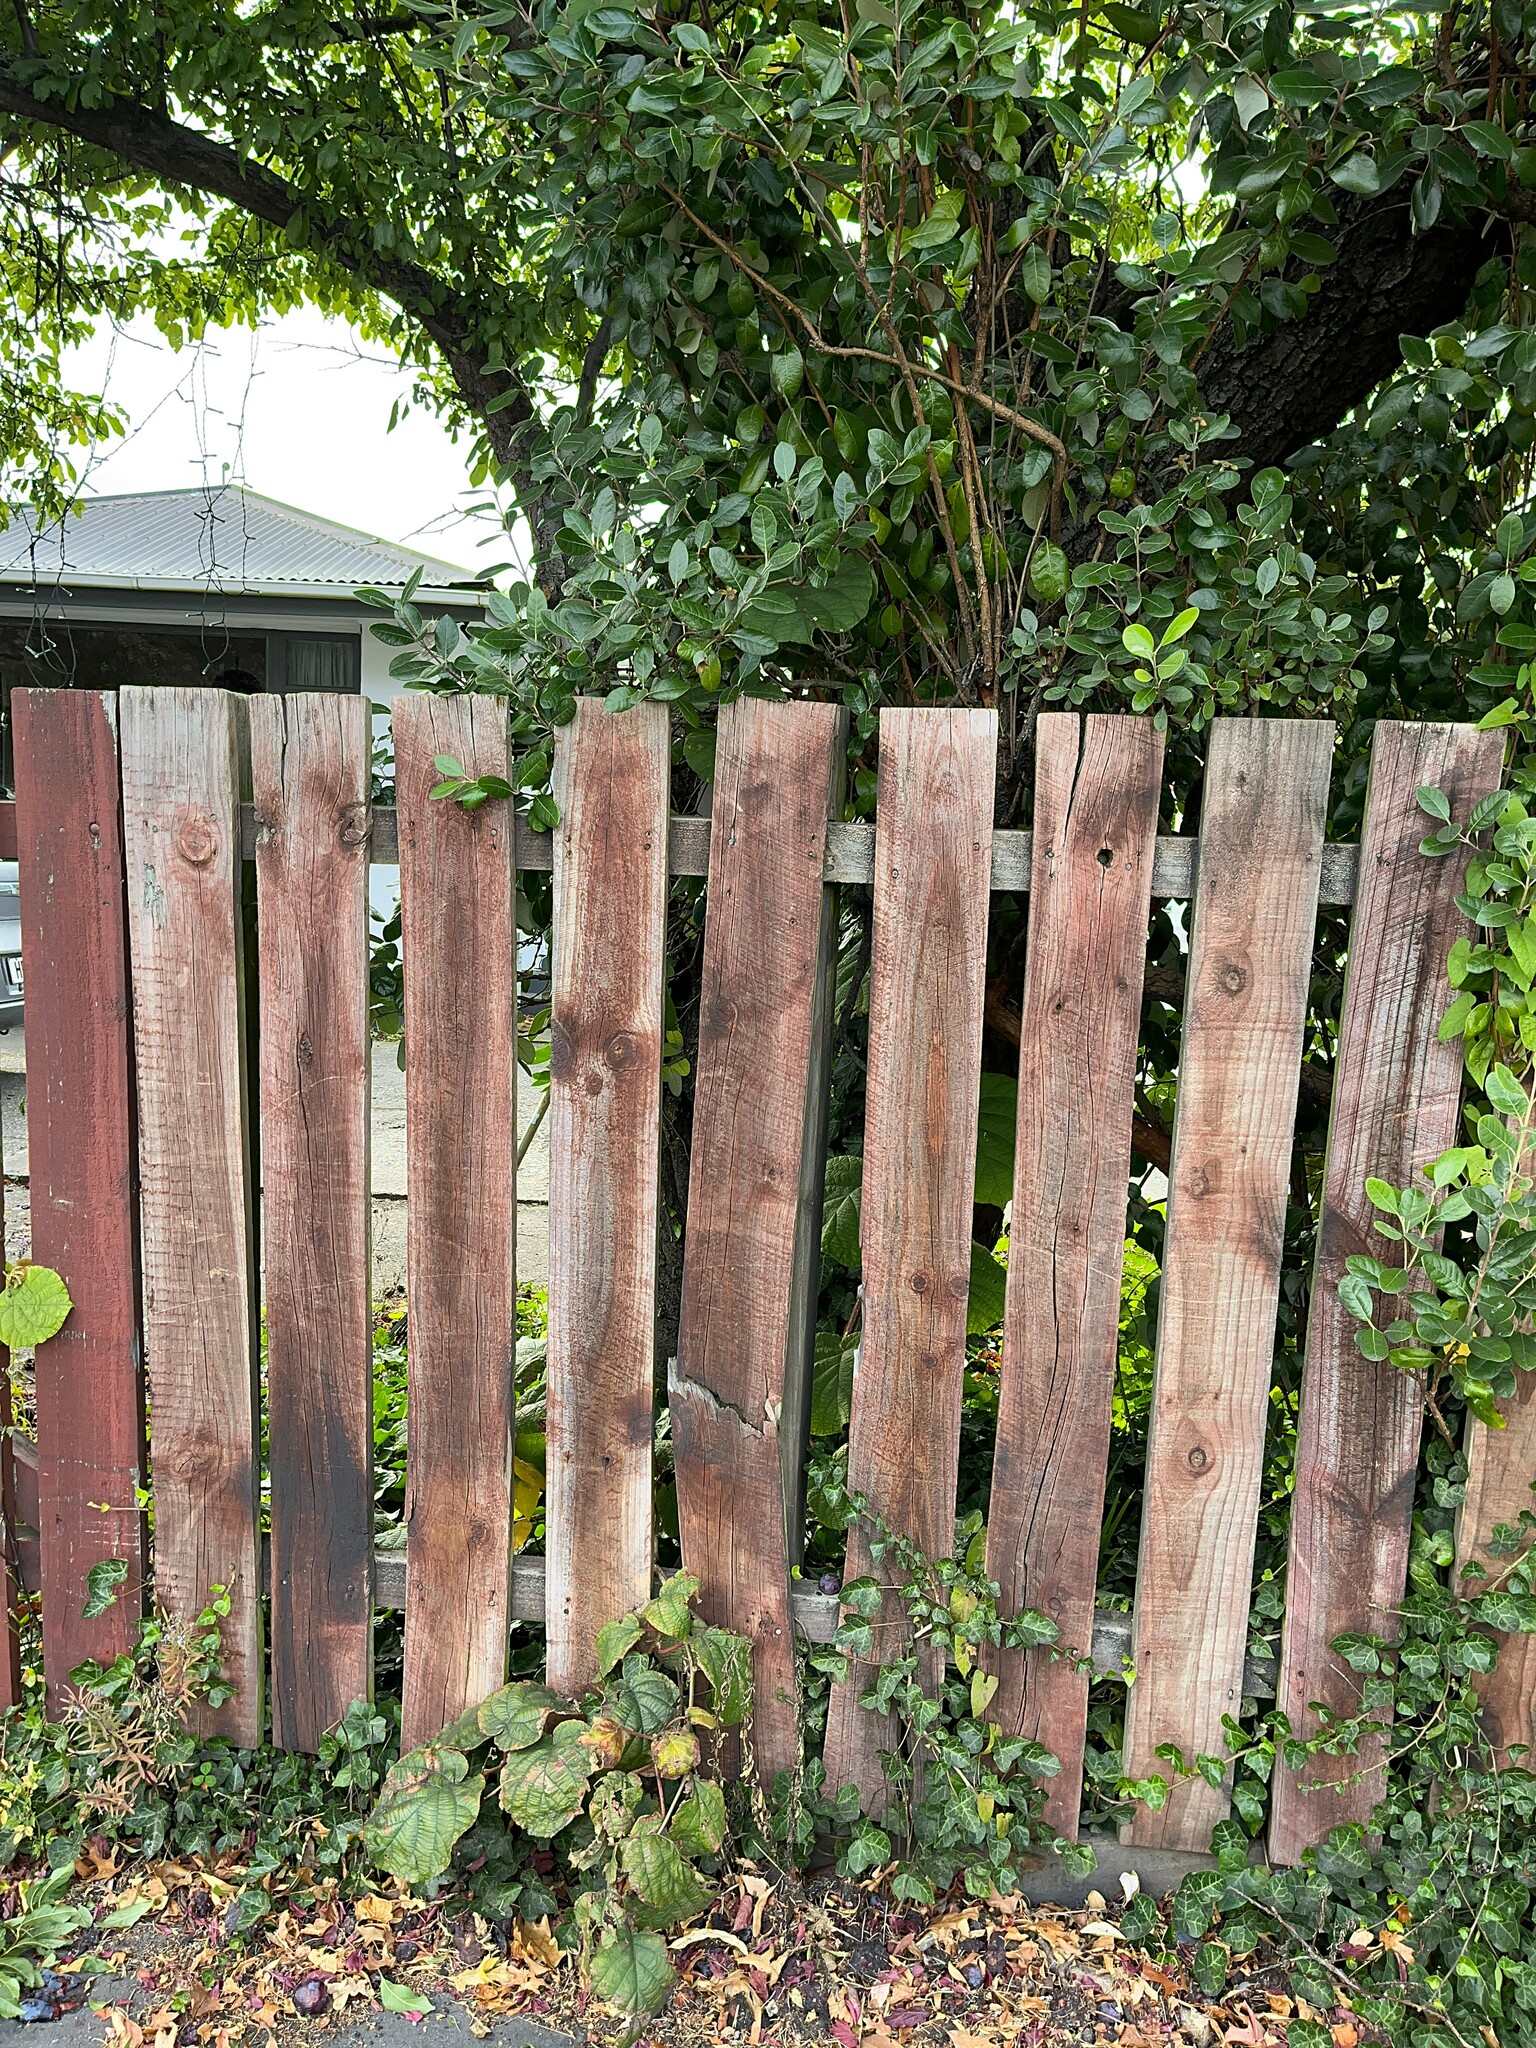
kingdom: Plantae
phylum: Tracheophyta
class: Magnoliopsida
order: Ericales
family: Actinidiaceae
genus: Actinidia
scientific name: Actinidia chinensis
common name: Kiwi
